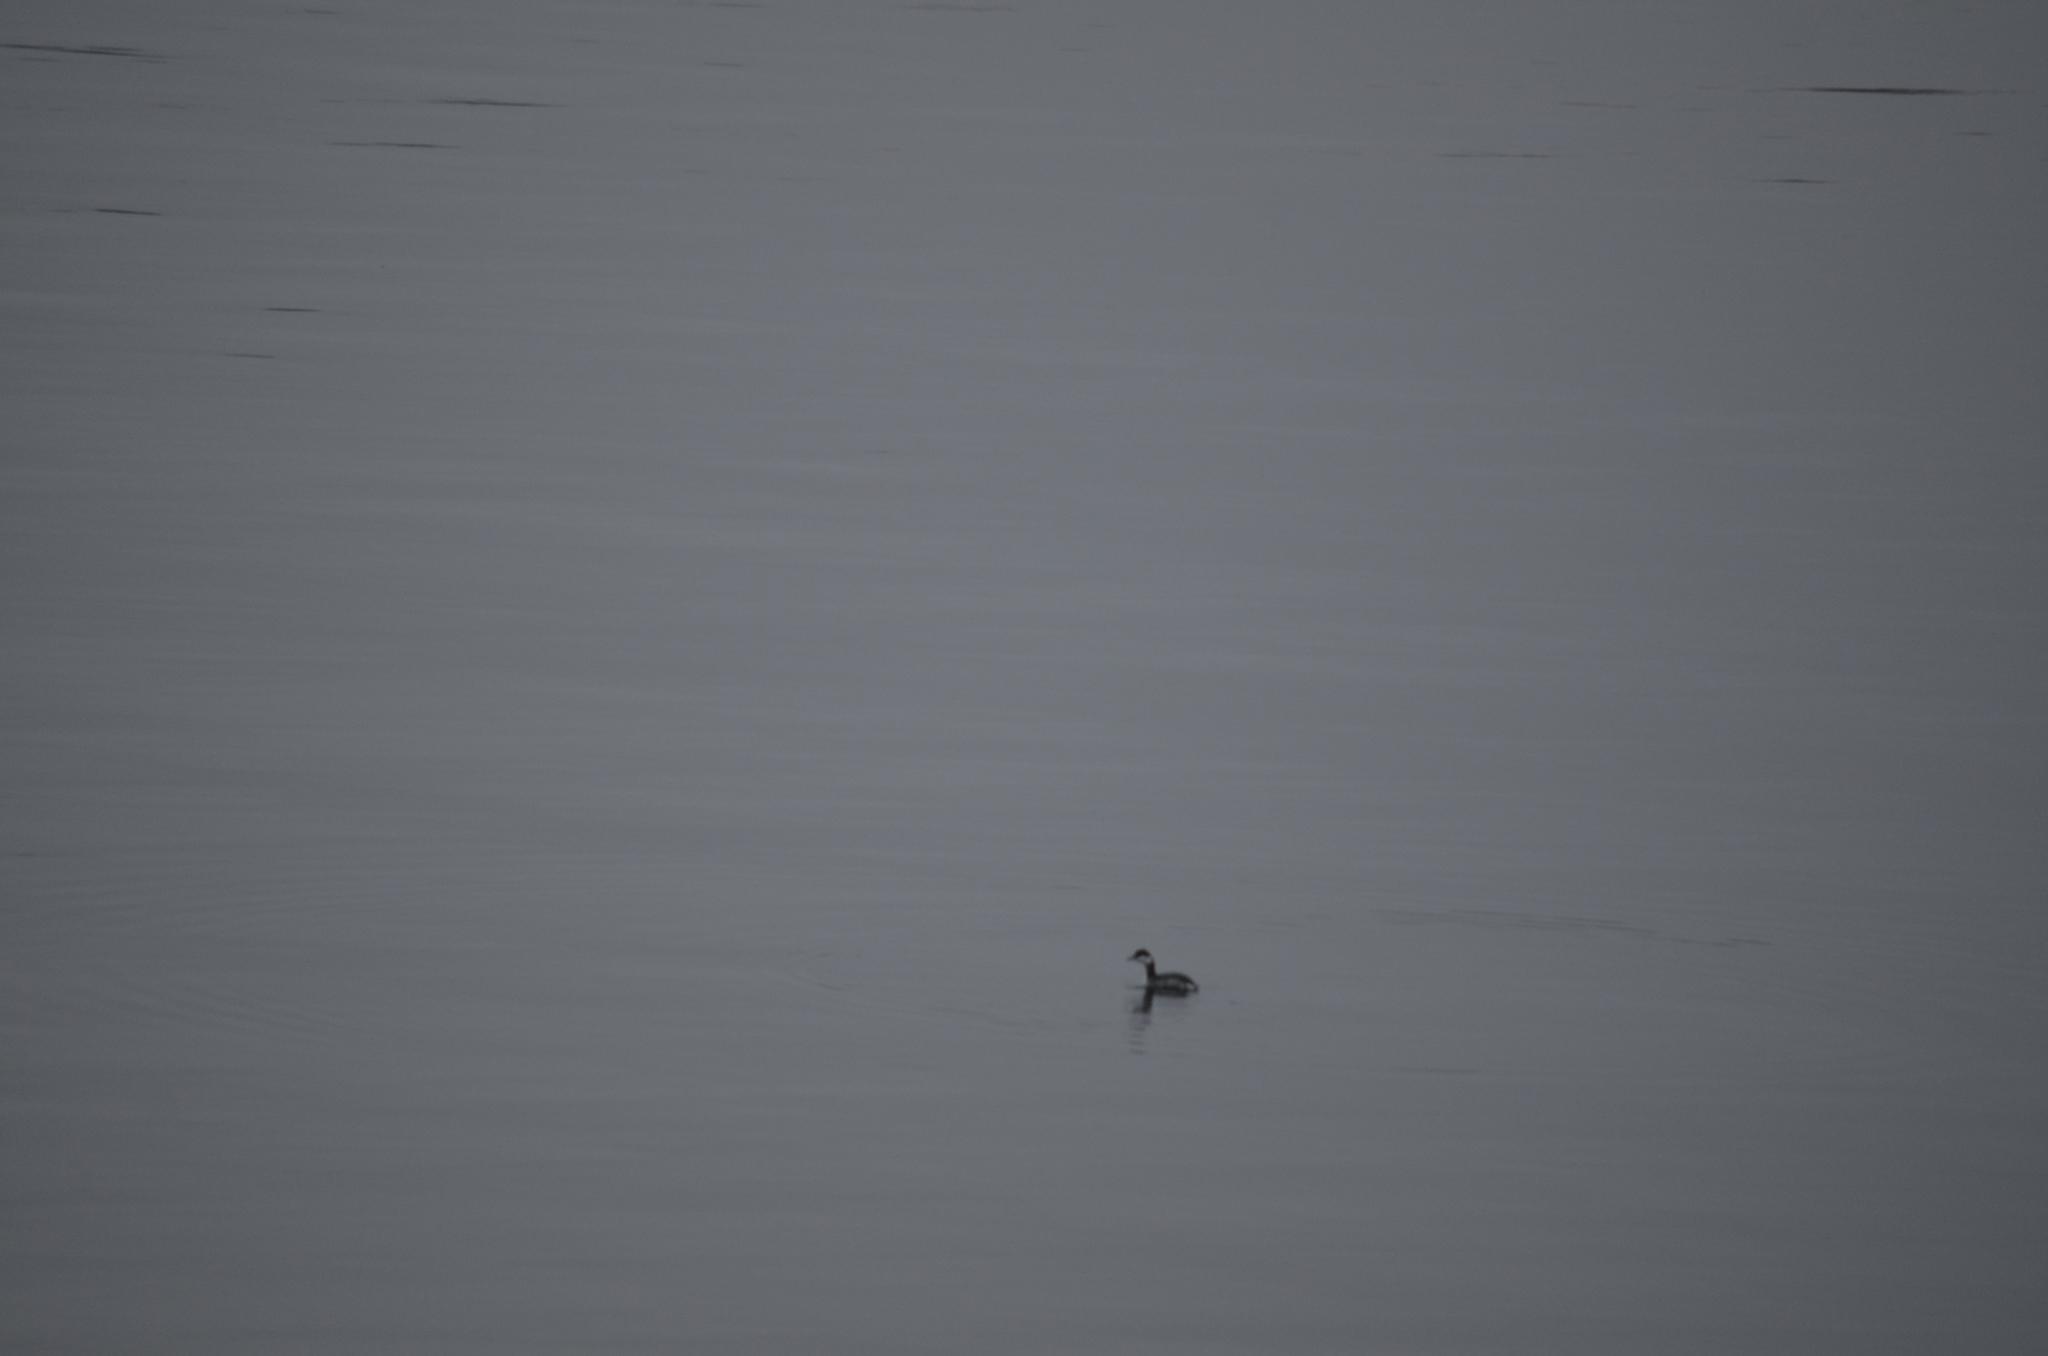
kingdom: Animalia
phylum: Chordata
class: Aves
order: Podicipediformes
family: Podicipedidae
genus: Podiceps
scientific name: Podiceps auritus
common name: Horned grebe
